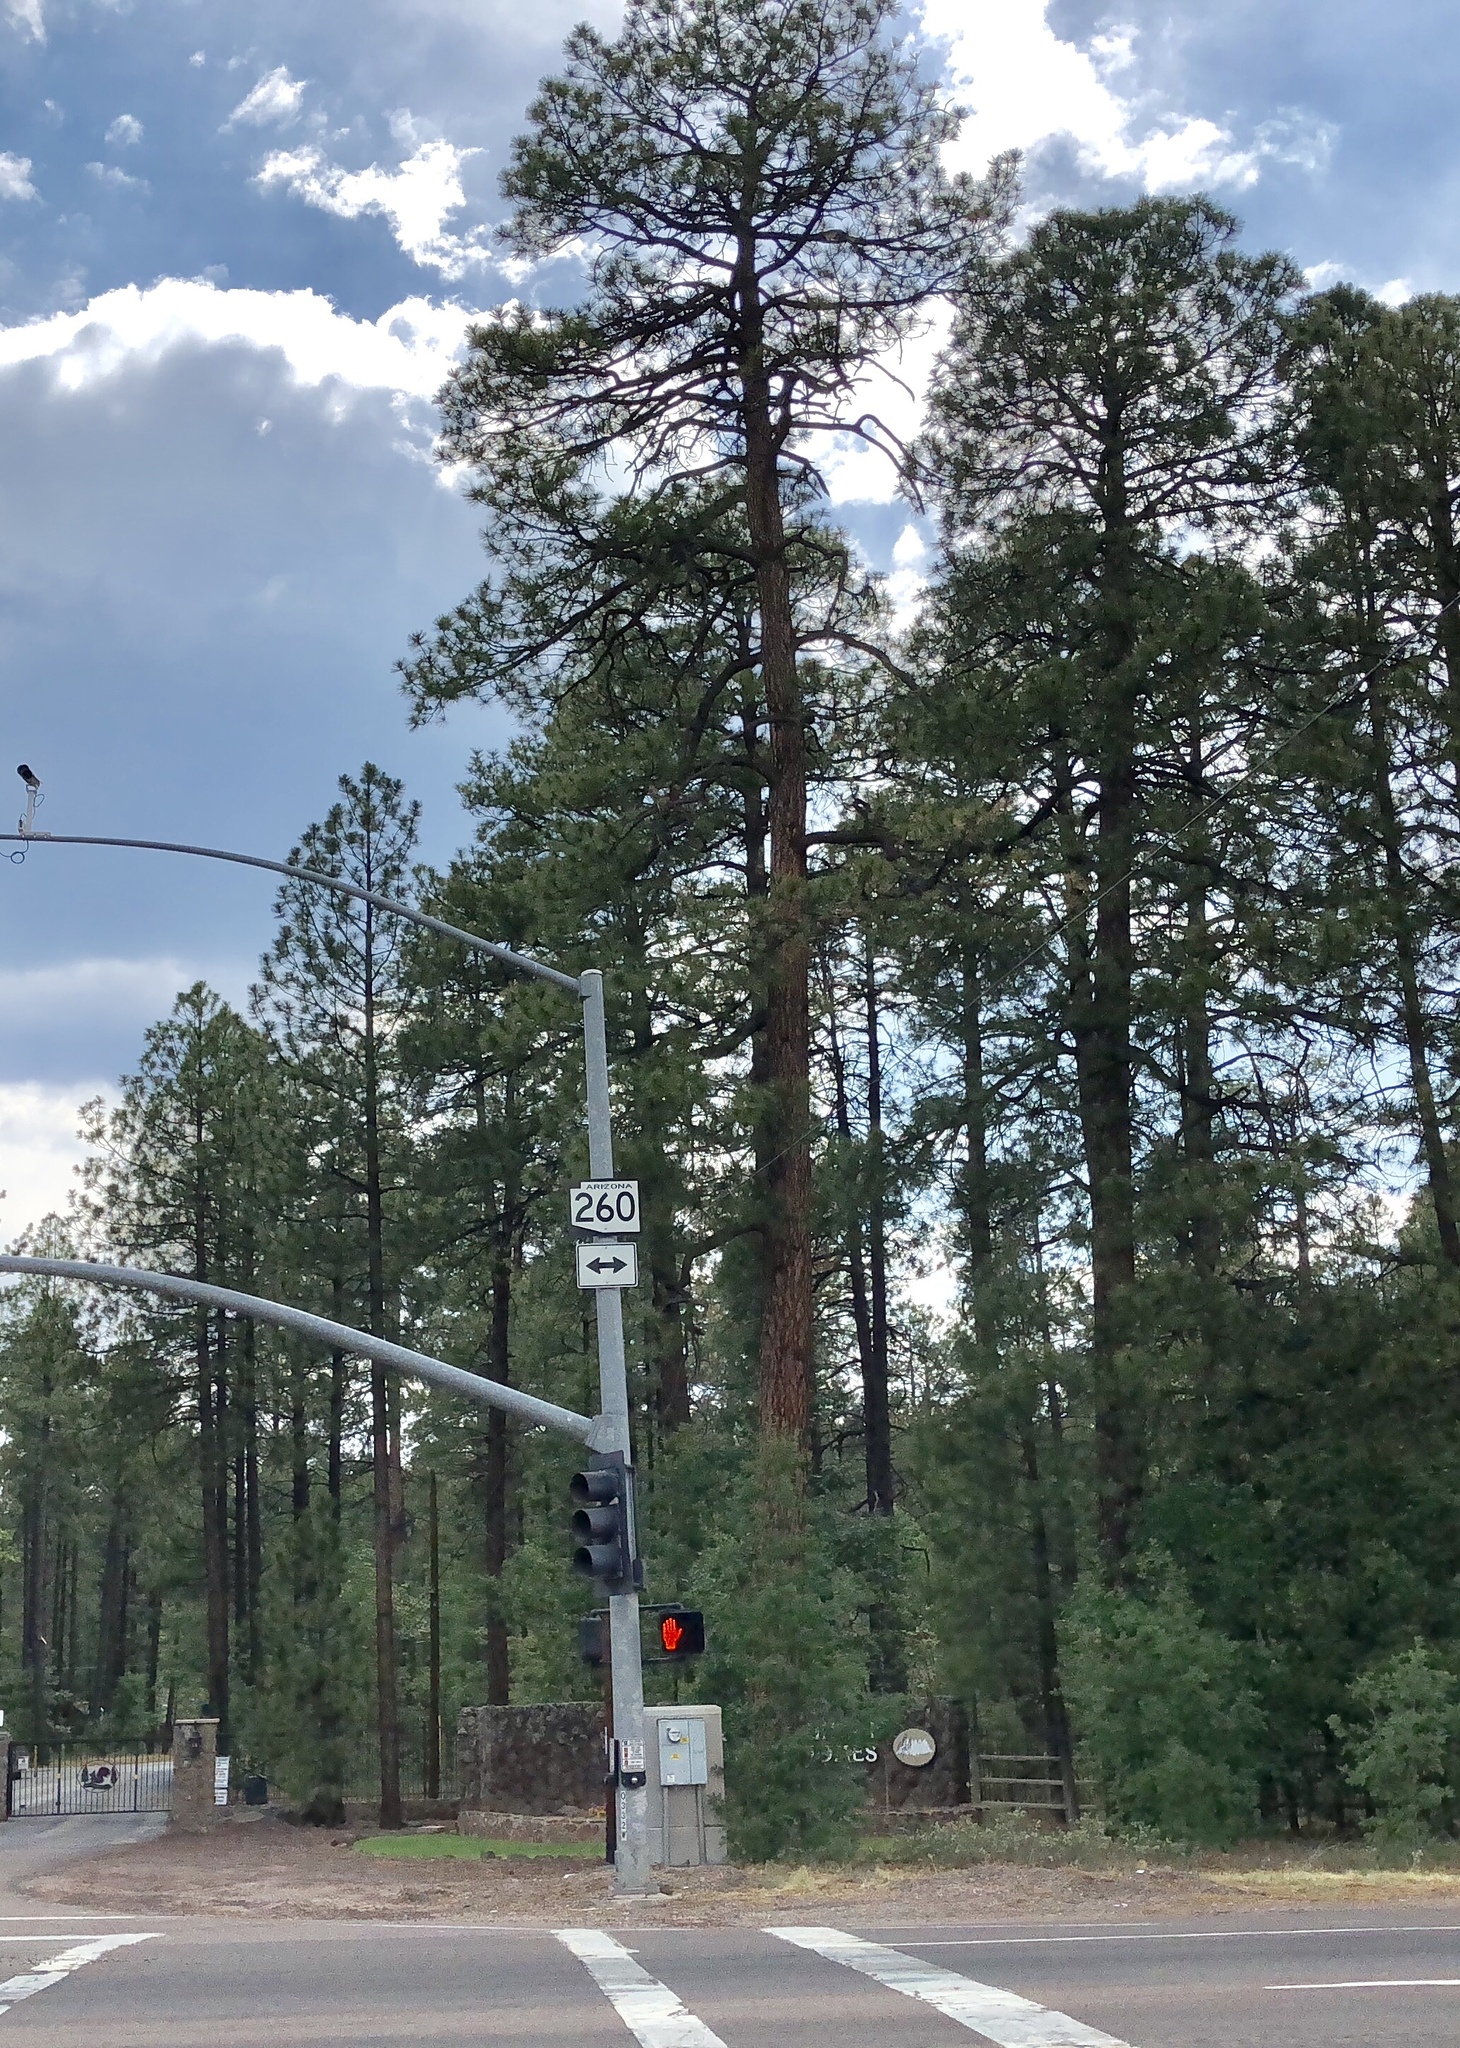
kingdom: Plantae
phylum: Tracheophyta
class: Pinopsida
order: Pinales
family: Pinaceae
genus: Pinus
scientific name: Pinus ponderosa
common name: Western yellow-pine
